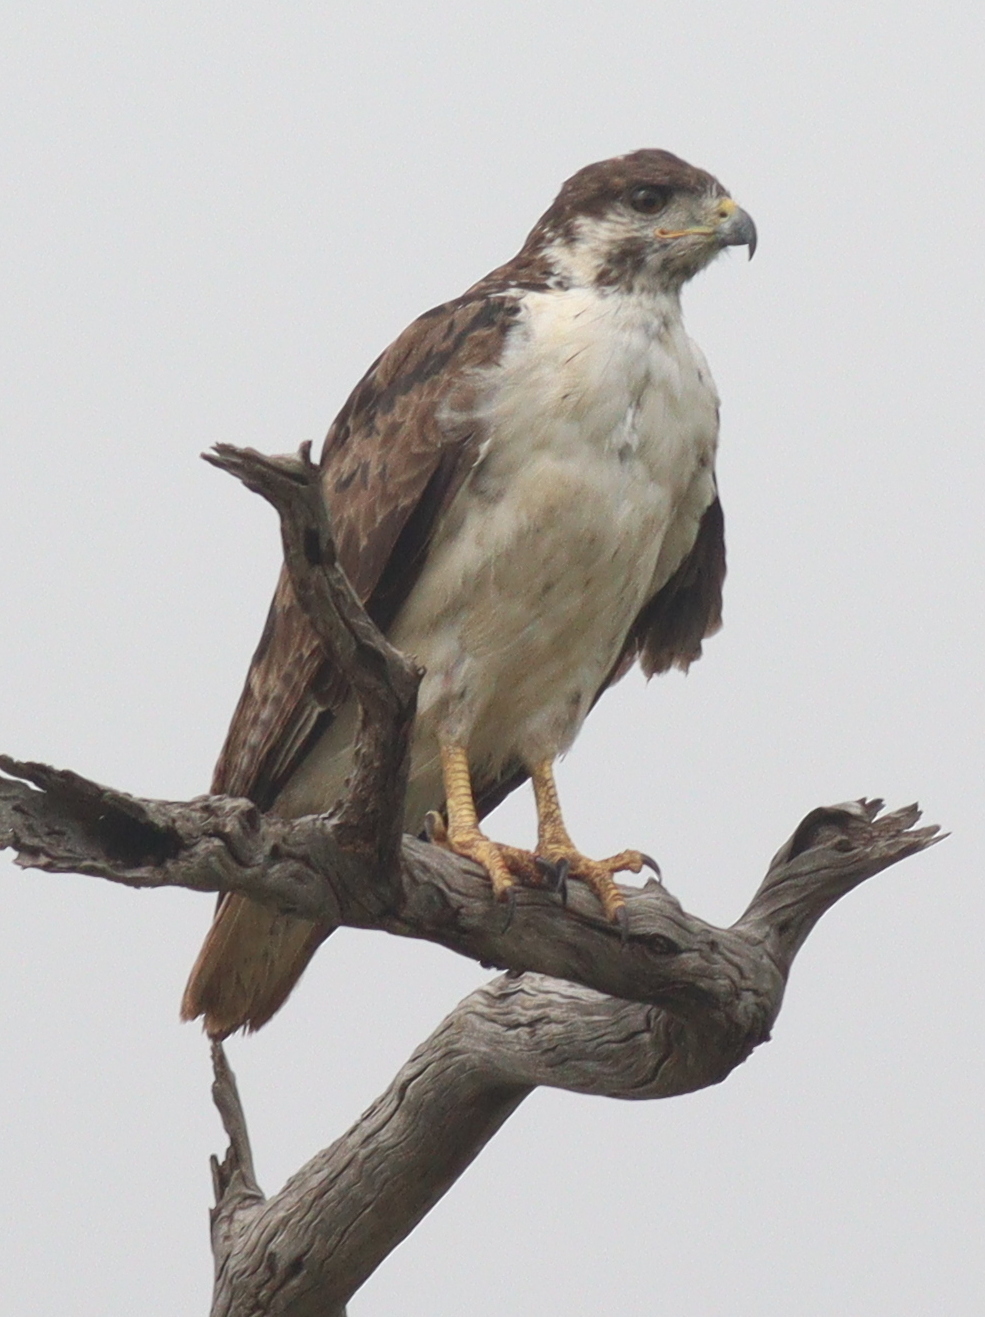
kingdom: Animalia
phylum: Chordata
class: Aves
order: Accipitriformes
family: Accipitridae
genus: Buteo
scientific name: Buteo augur
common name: Augur buzzard
